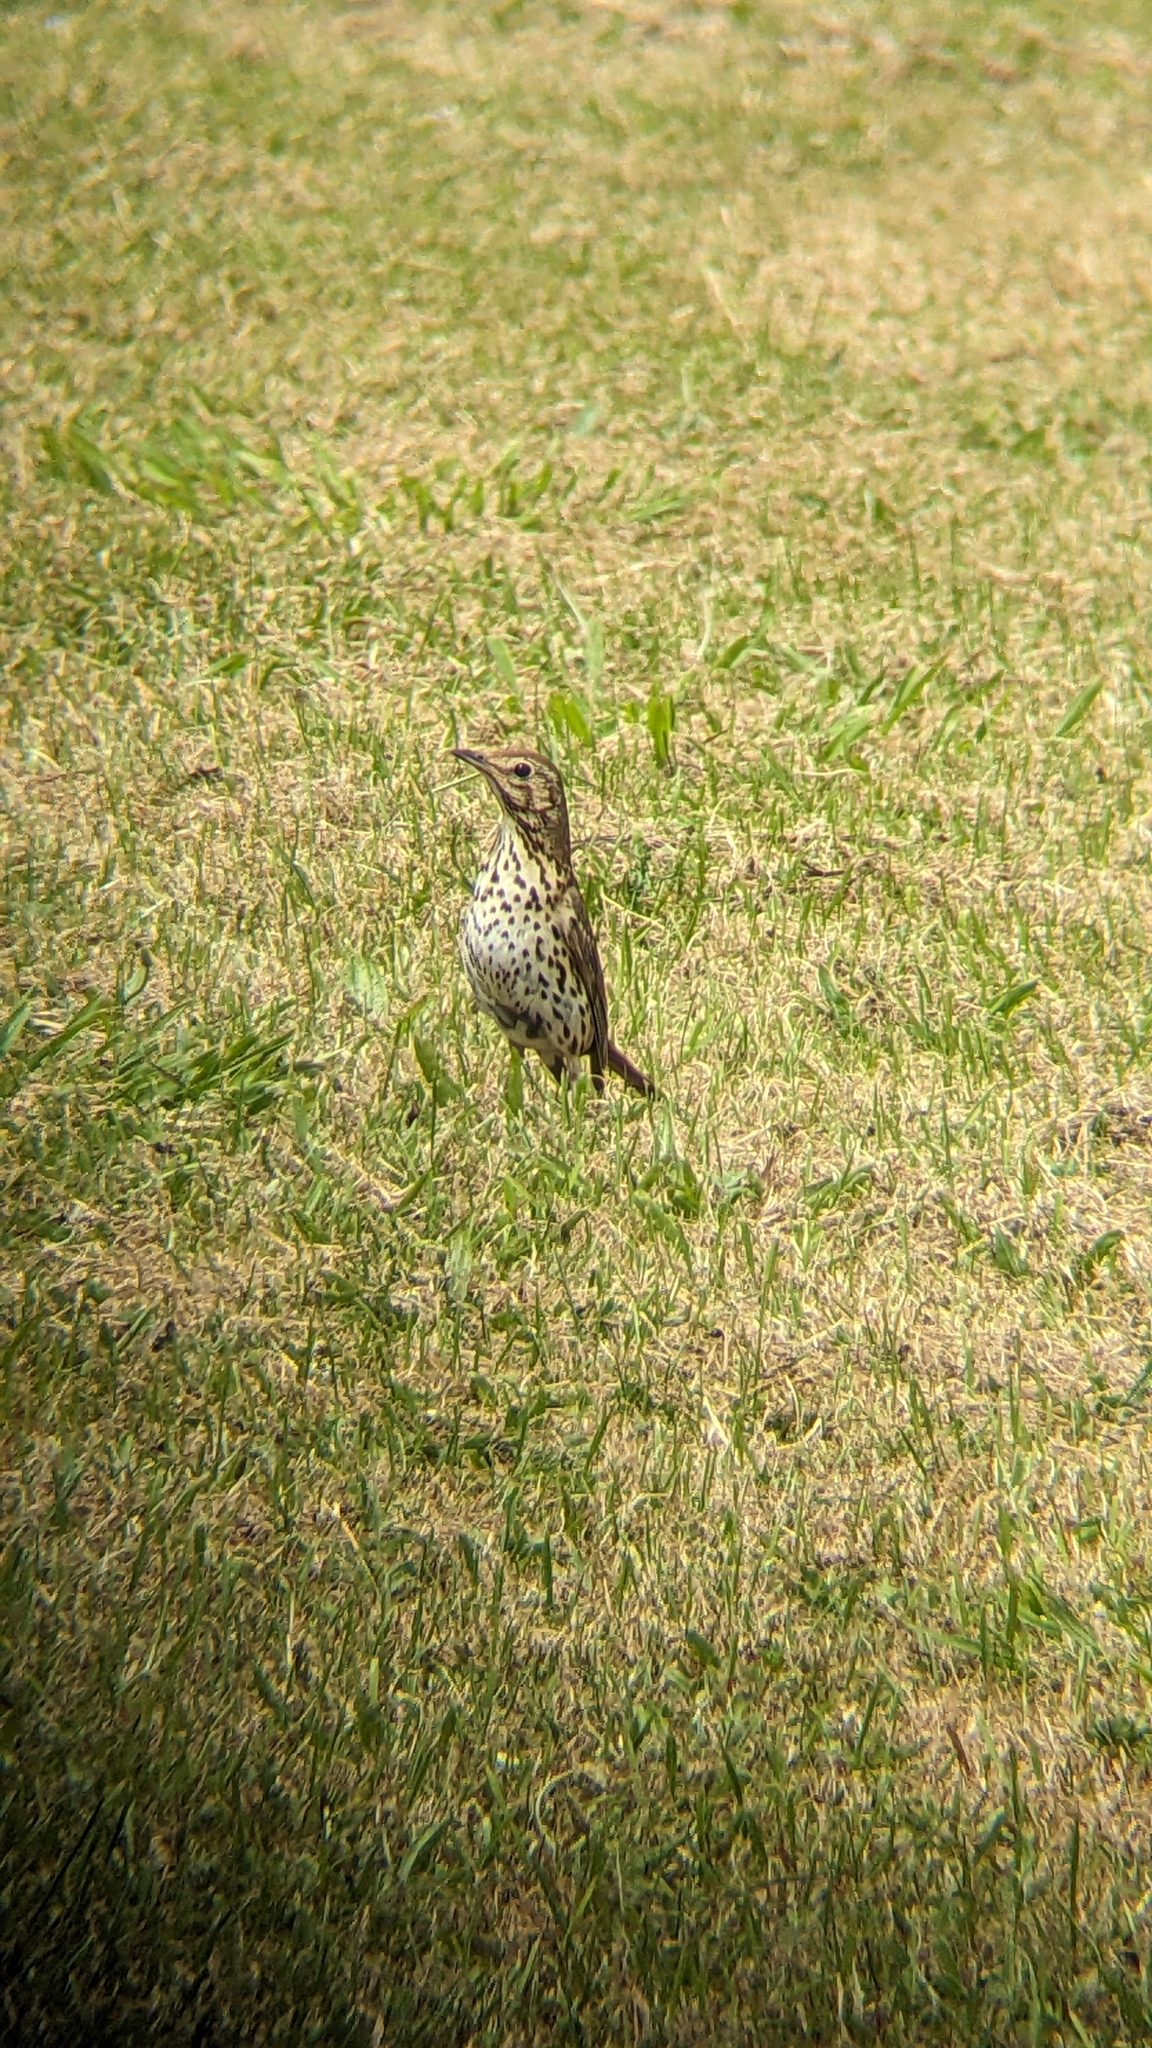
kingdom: Animalia
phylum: Chordata
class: Aves
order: Passeriformes
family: Turdidae
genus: Turdus
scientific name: Turdus philomelos
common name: Song thrush
